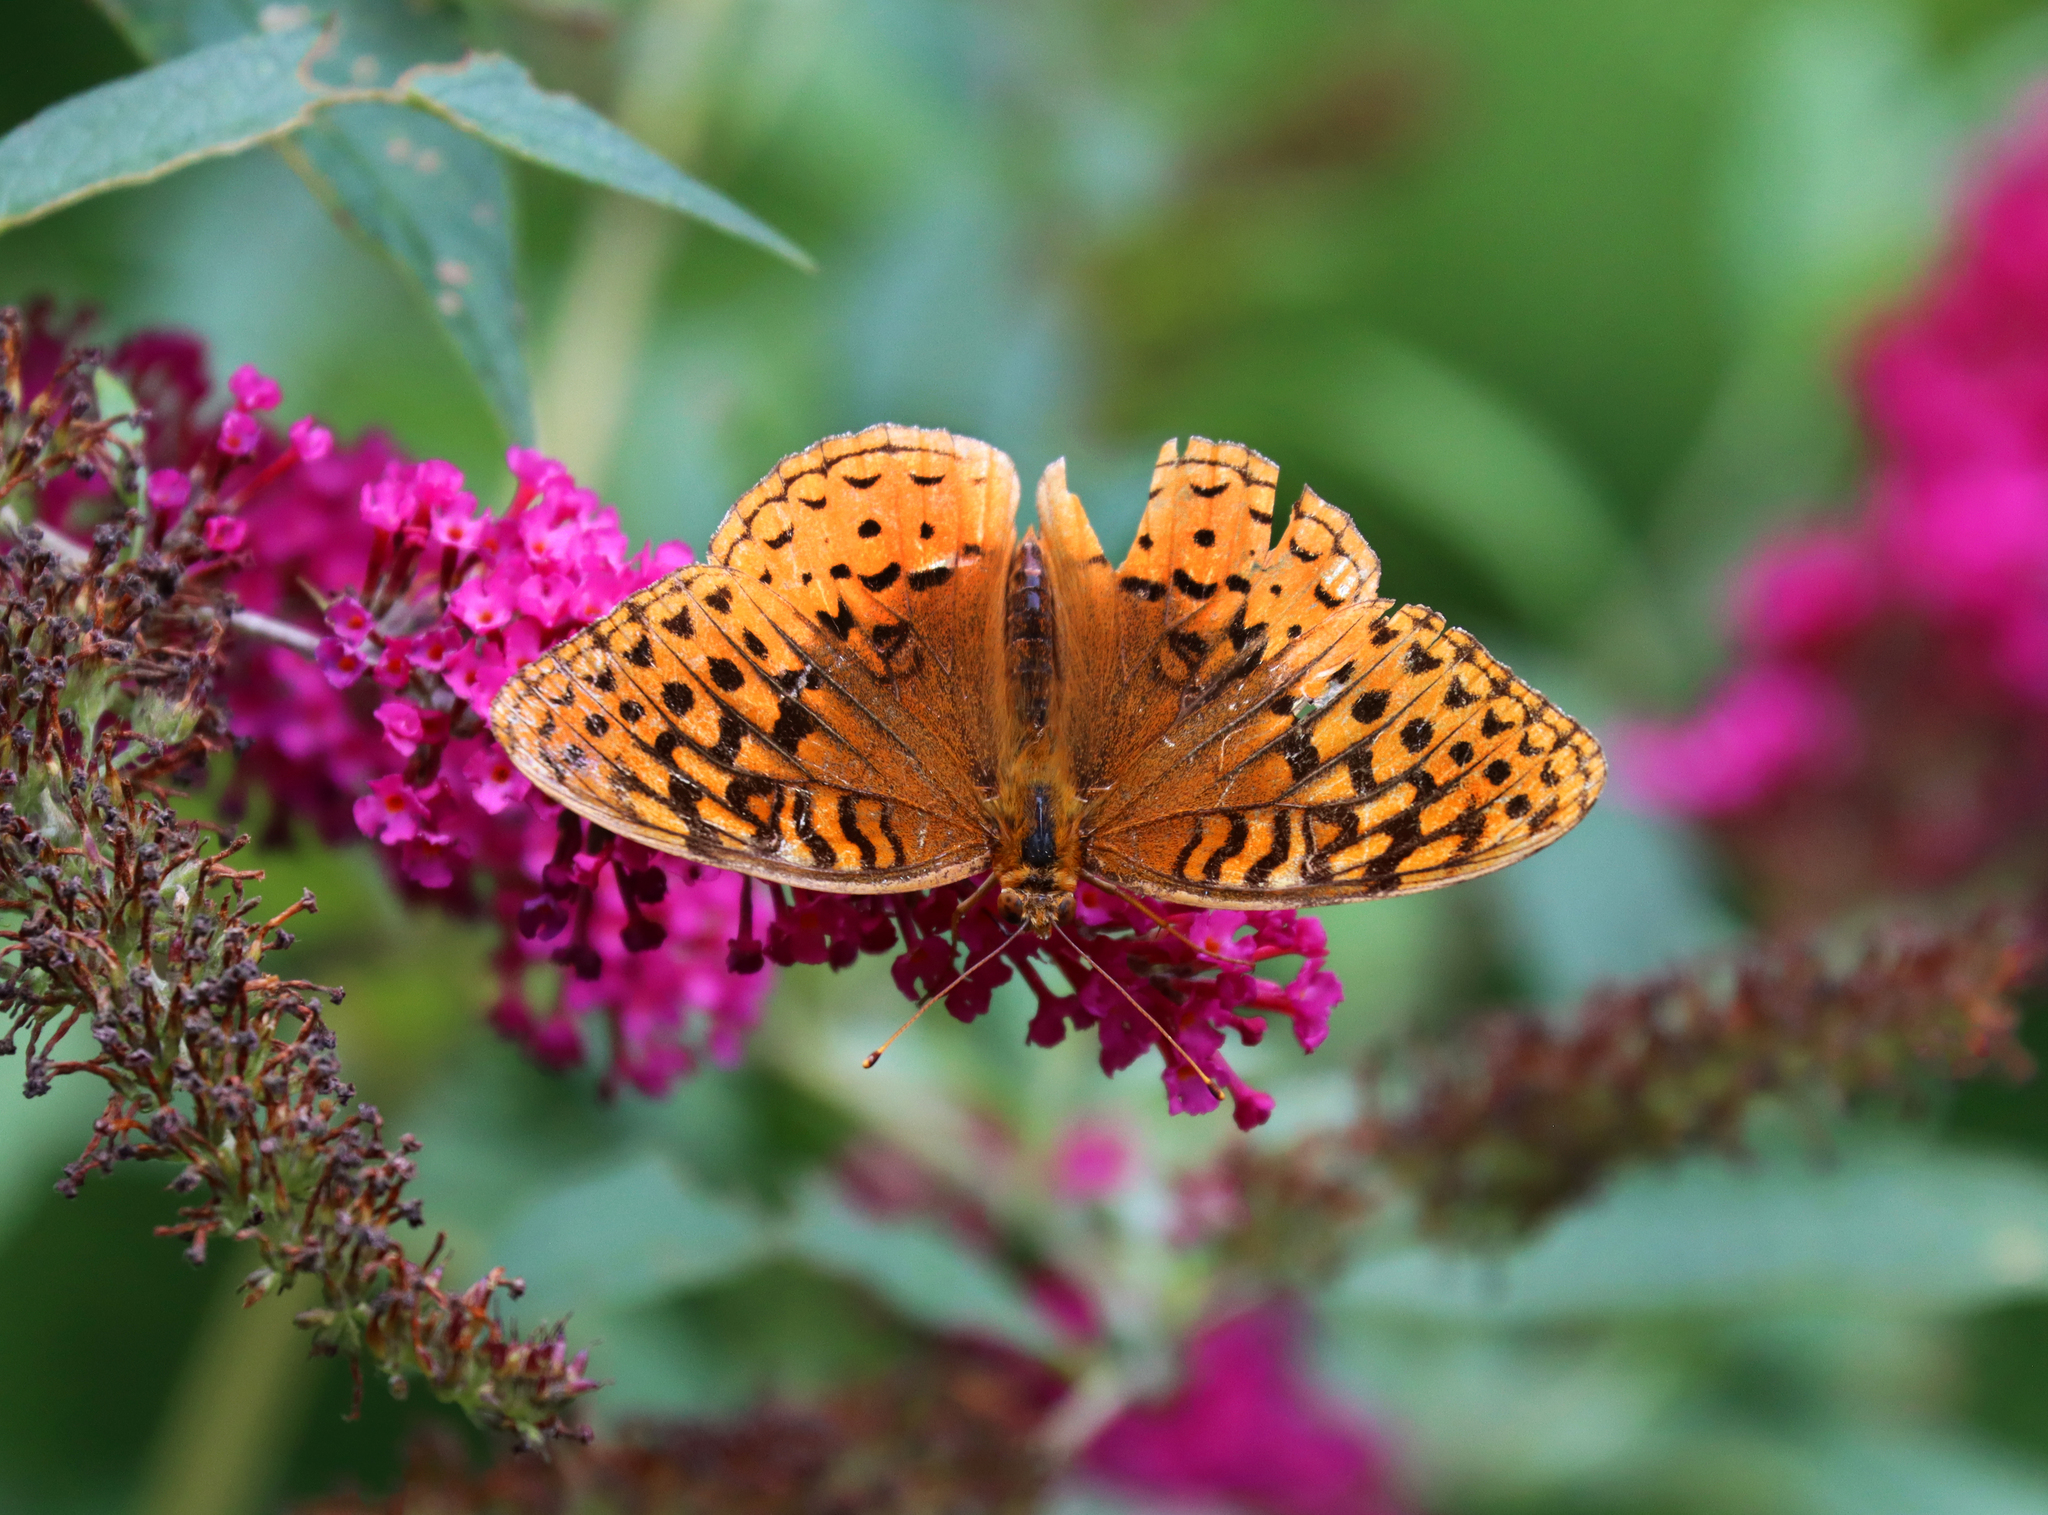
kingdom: Animalia
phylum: Arthropoda
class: Insecta
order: Lepidoptera
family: Nymphalidae
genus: Speyeria
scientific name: Speyeria cybele
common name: Great spangled fritillary
